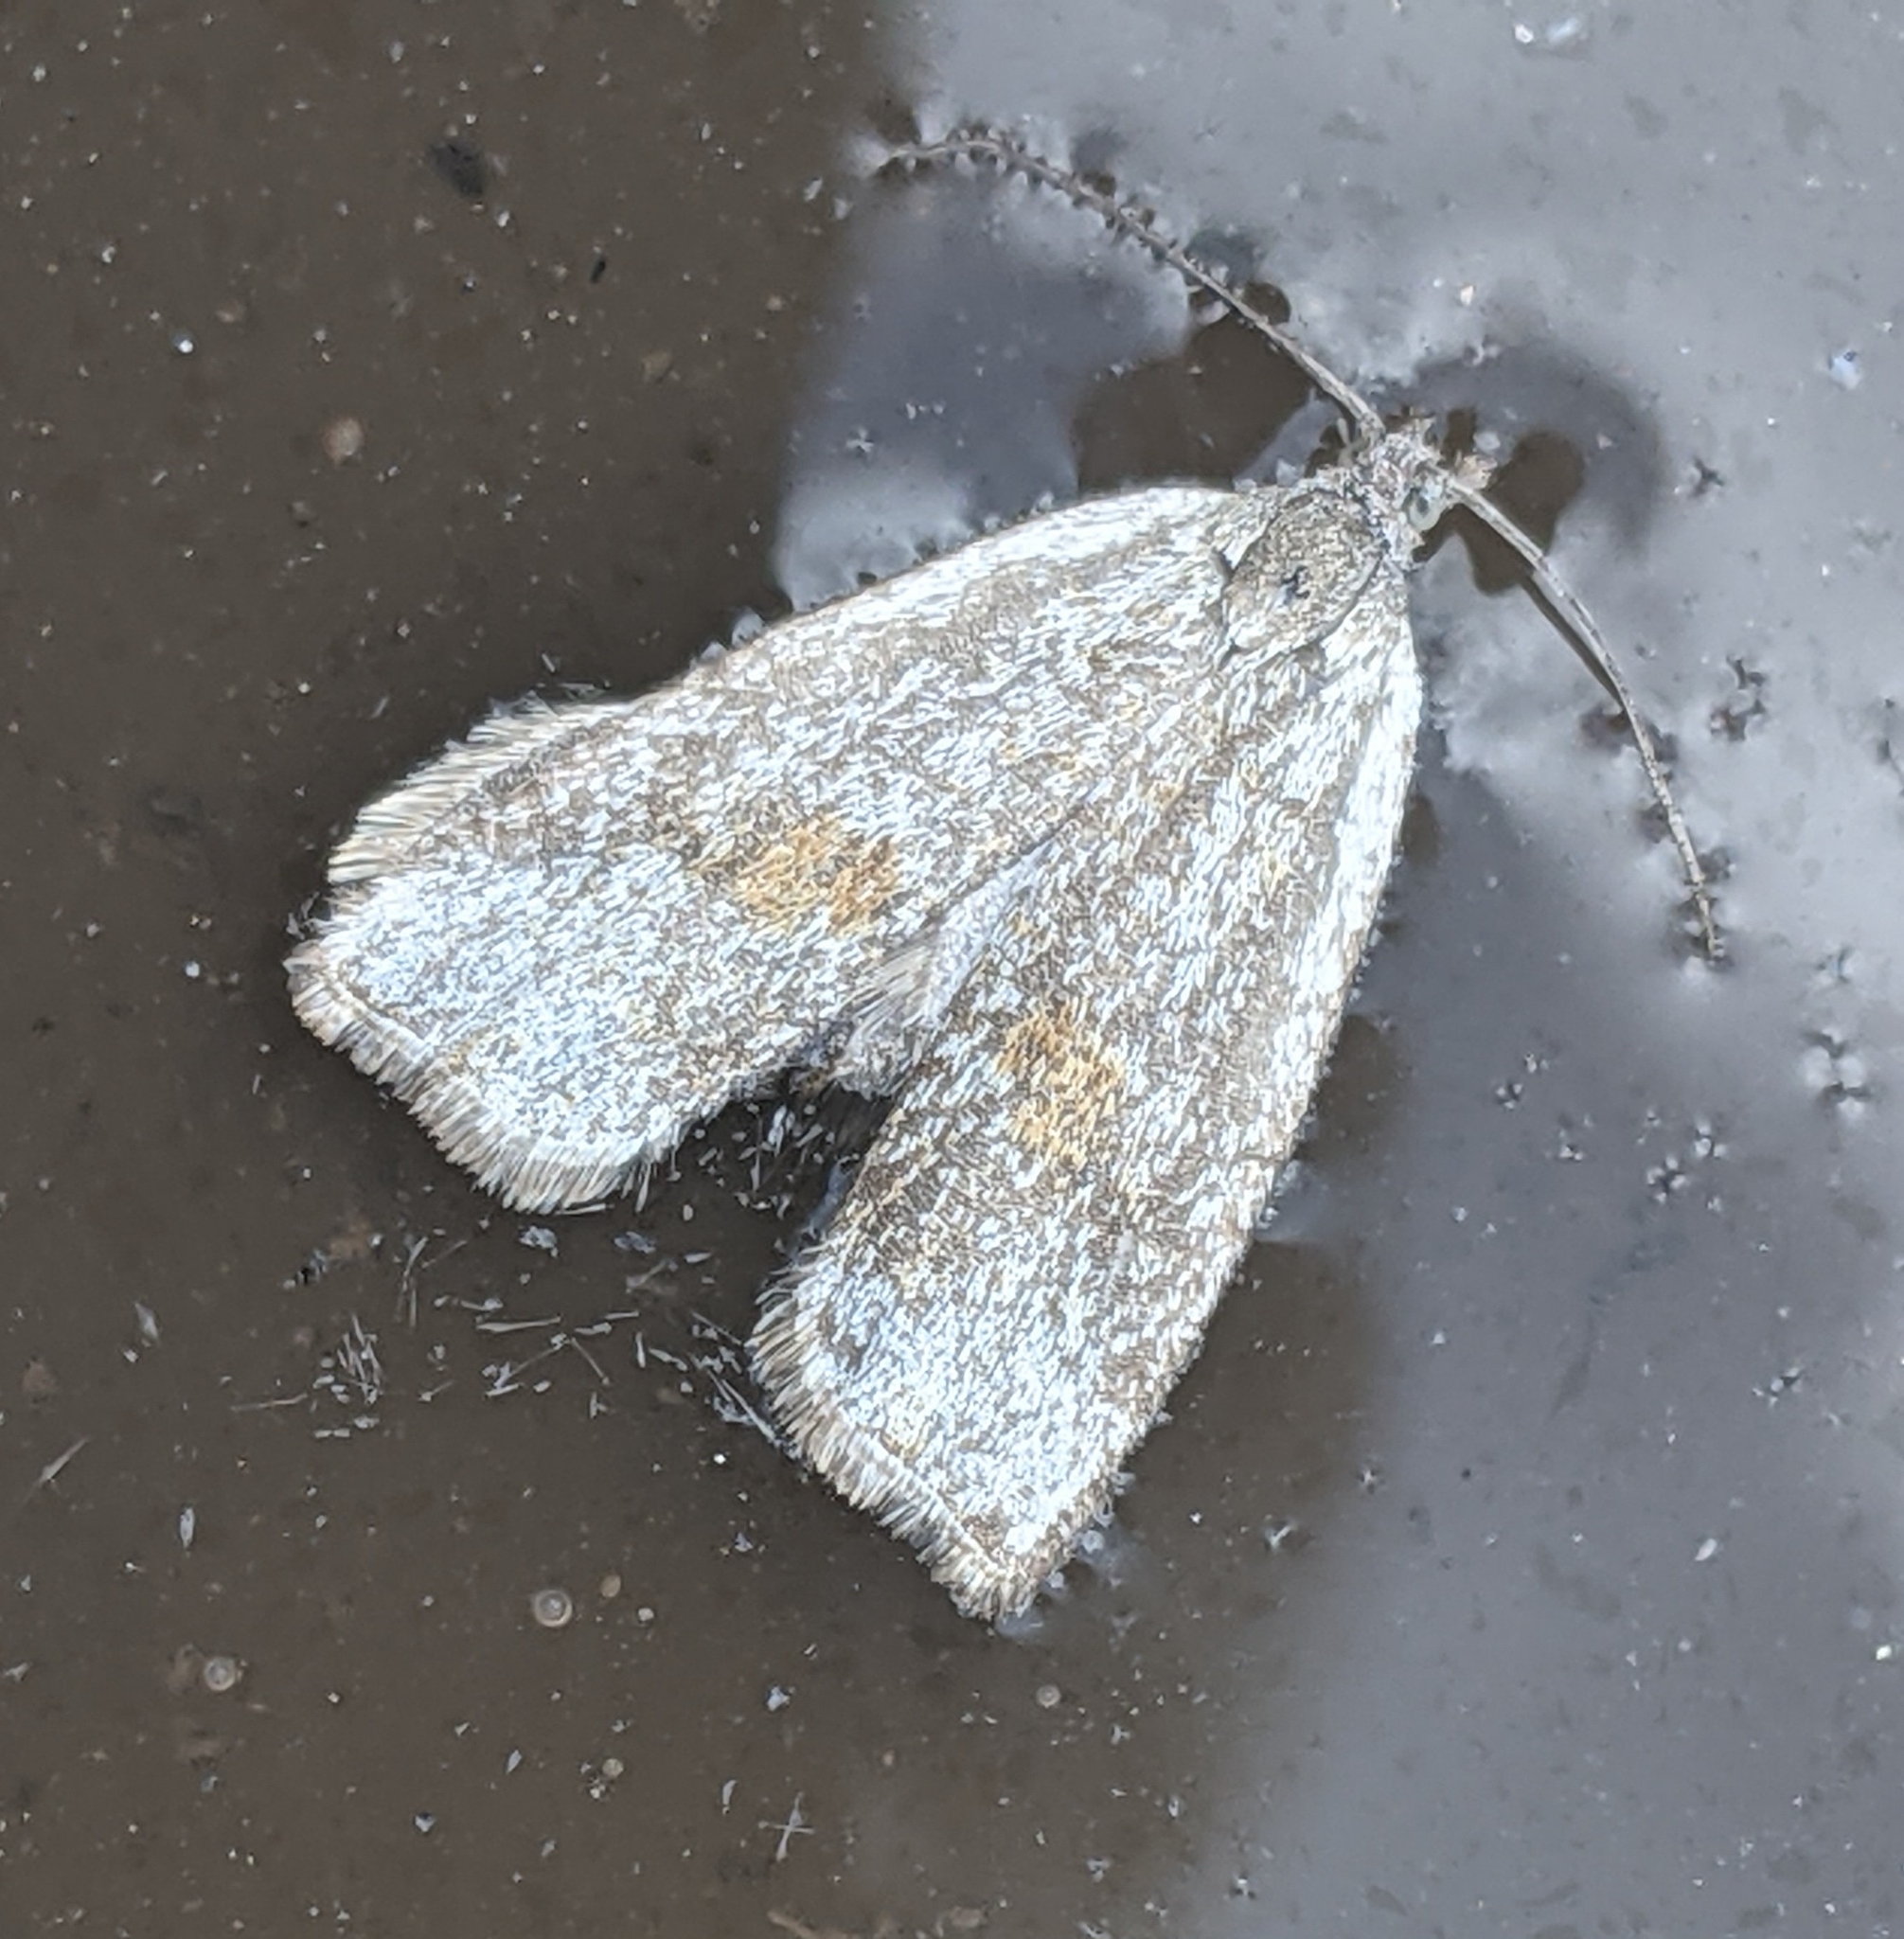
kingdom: Animalia
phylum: Arthropoda
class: Insecta
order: Lepidoptera
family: Tortricidae
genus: Hystrichophora
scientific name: Hystrichophora asphodelana
